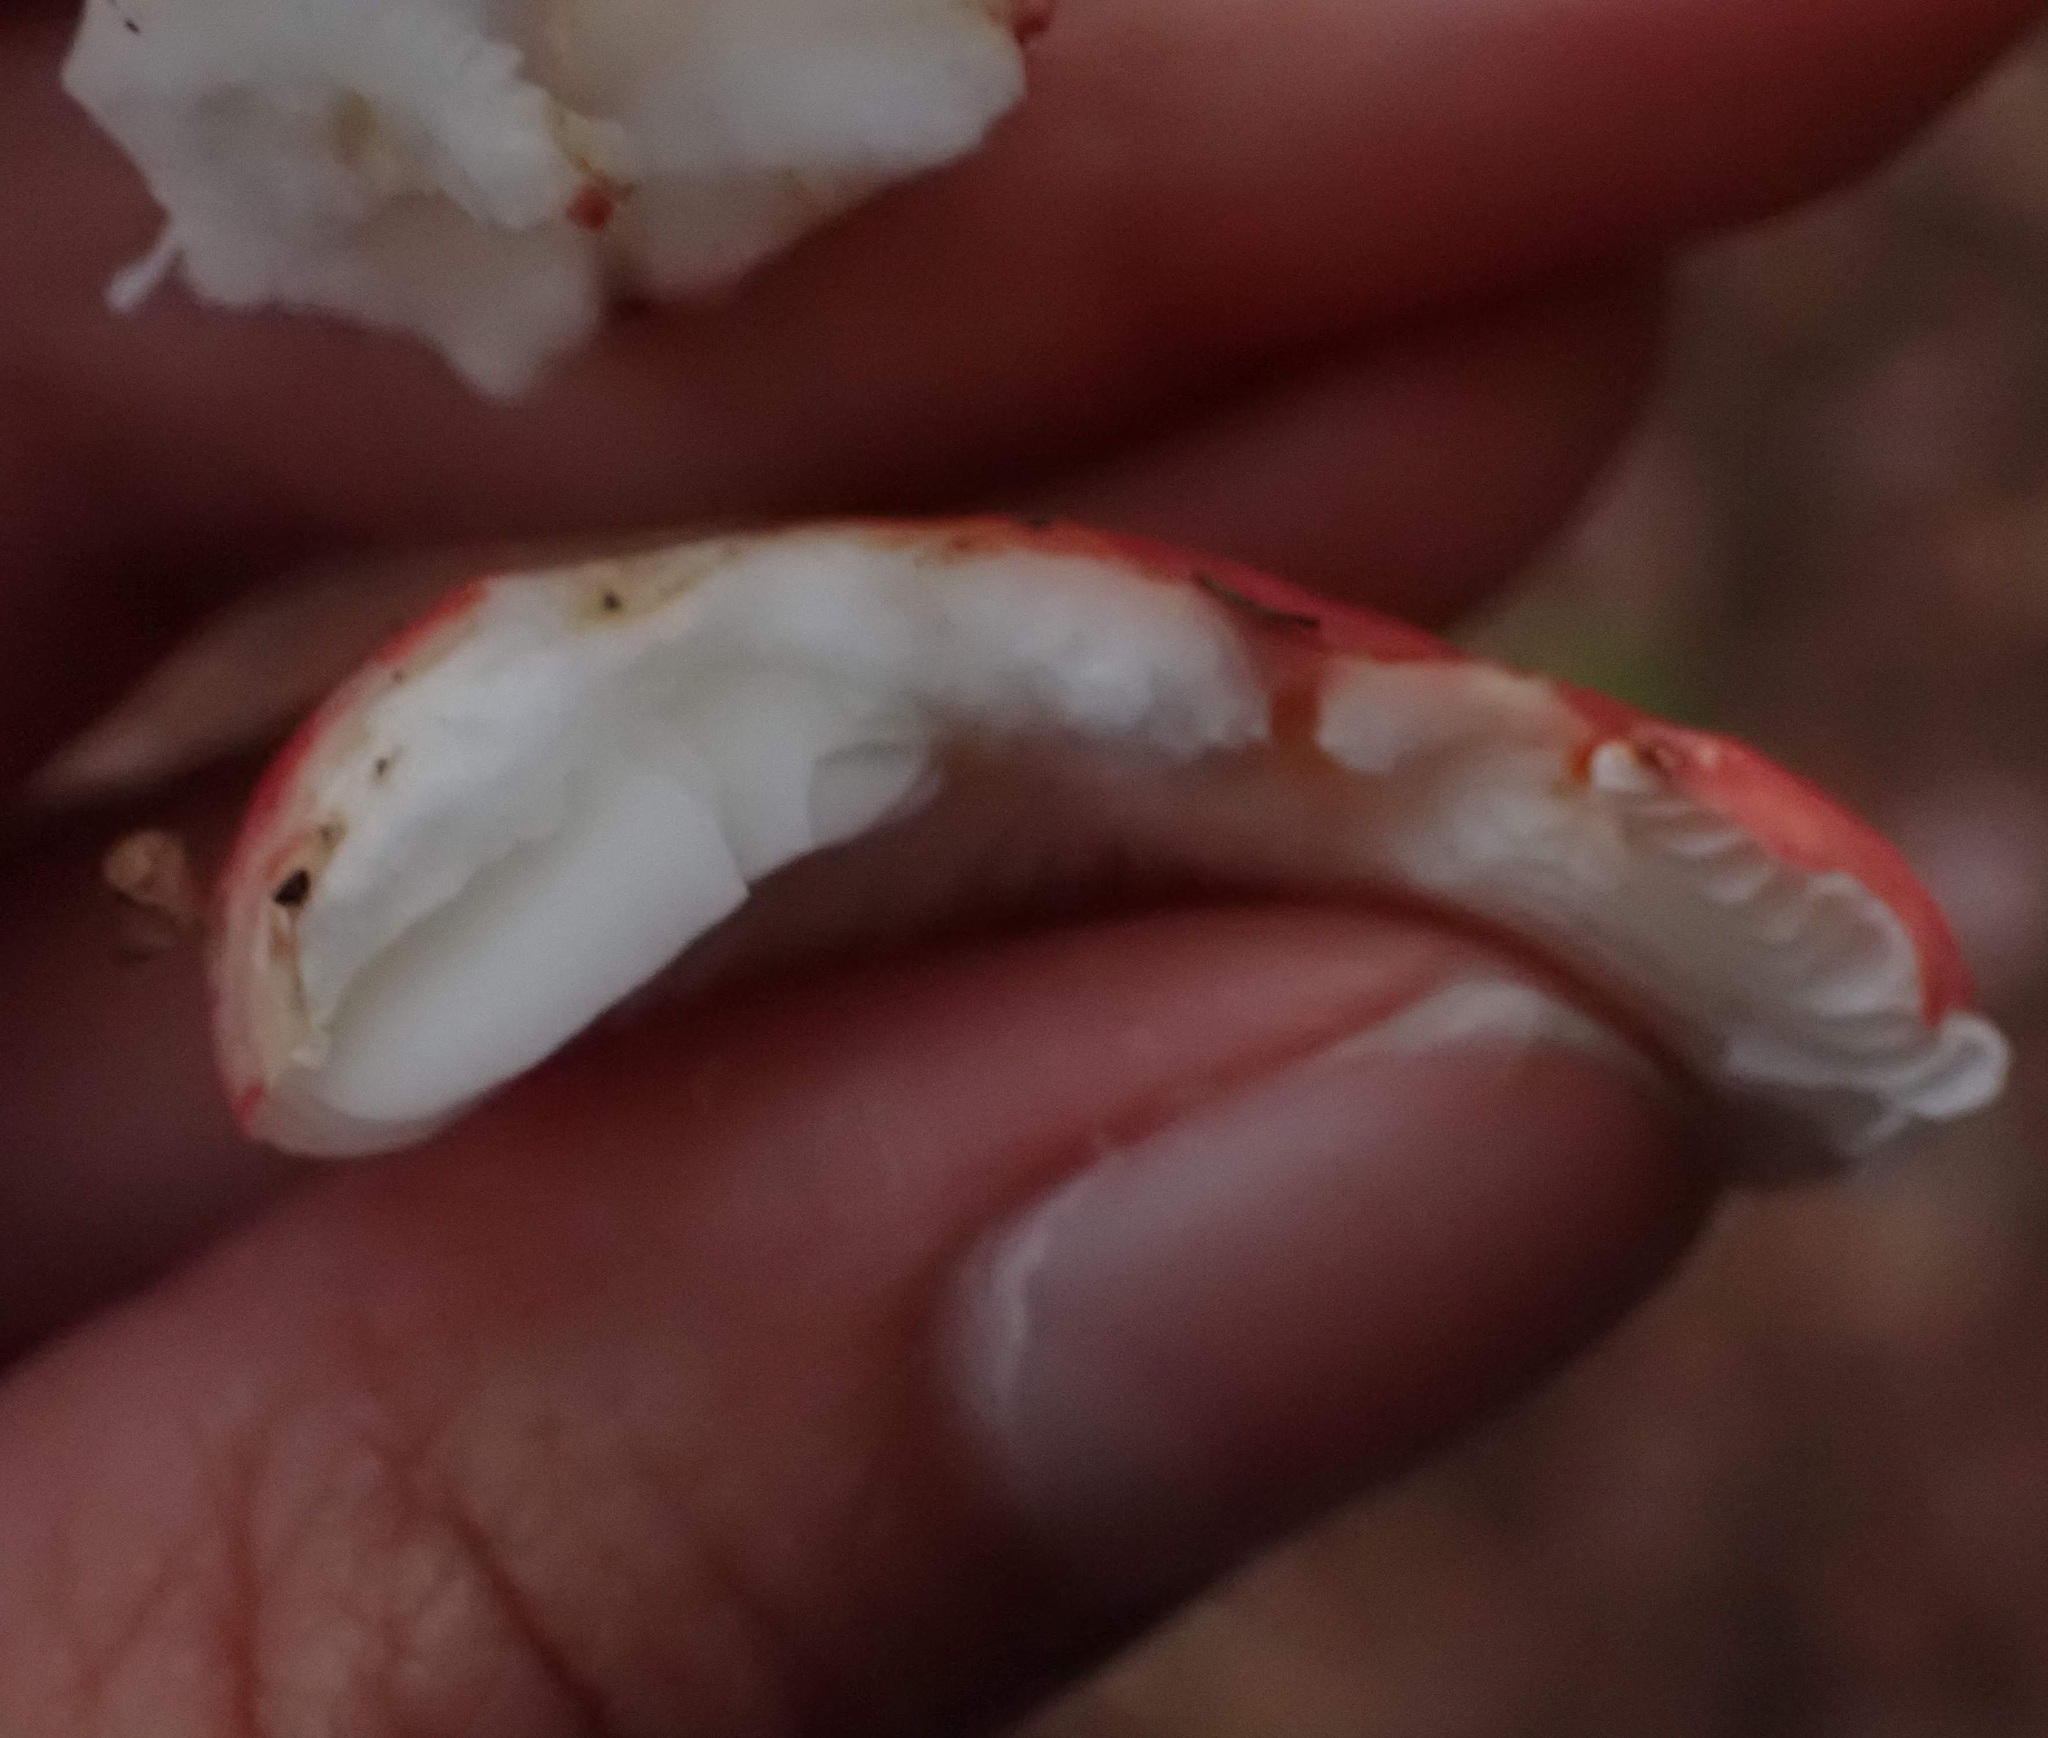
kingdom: Fungi
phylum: Basidiomycota
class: Agaricomycetes
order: Russulales
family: Russulaceae
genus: Russula
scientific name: Russula
